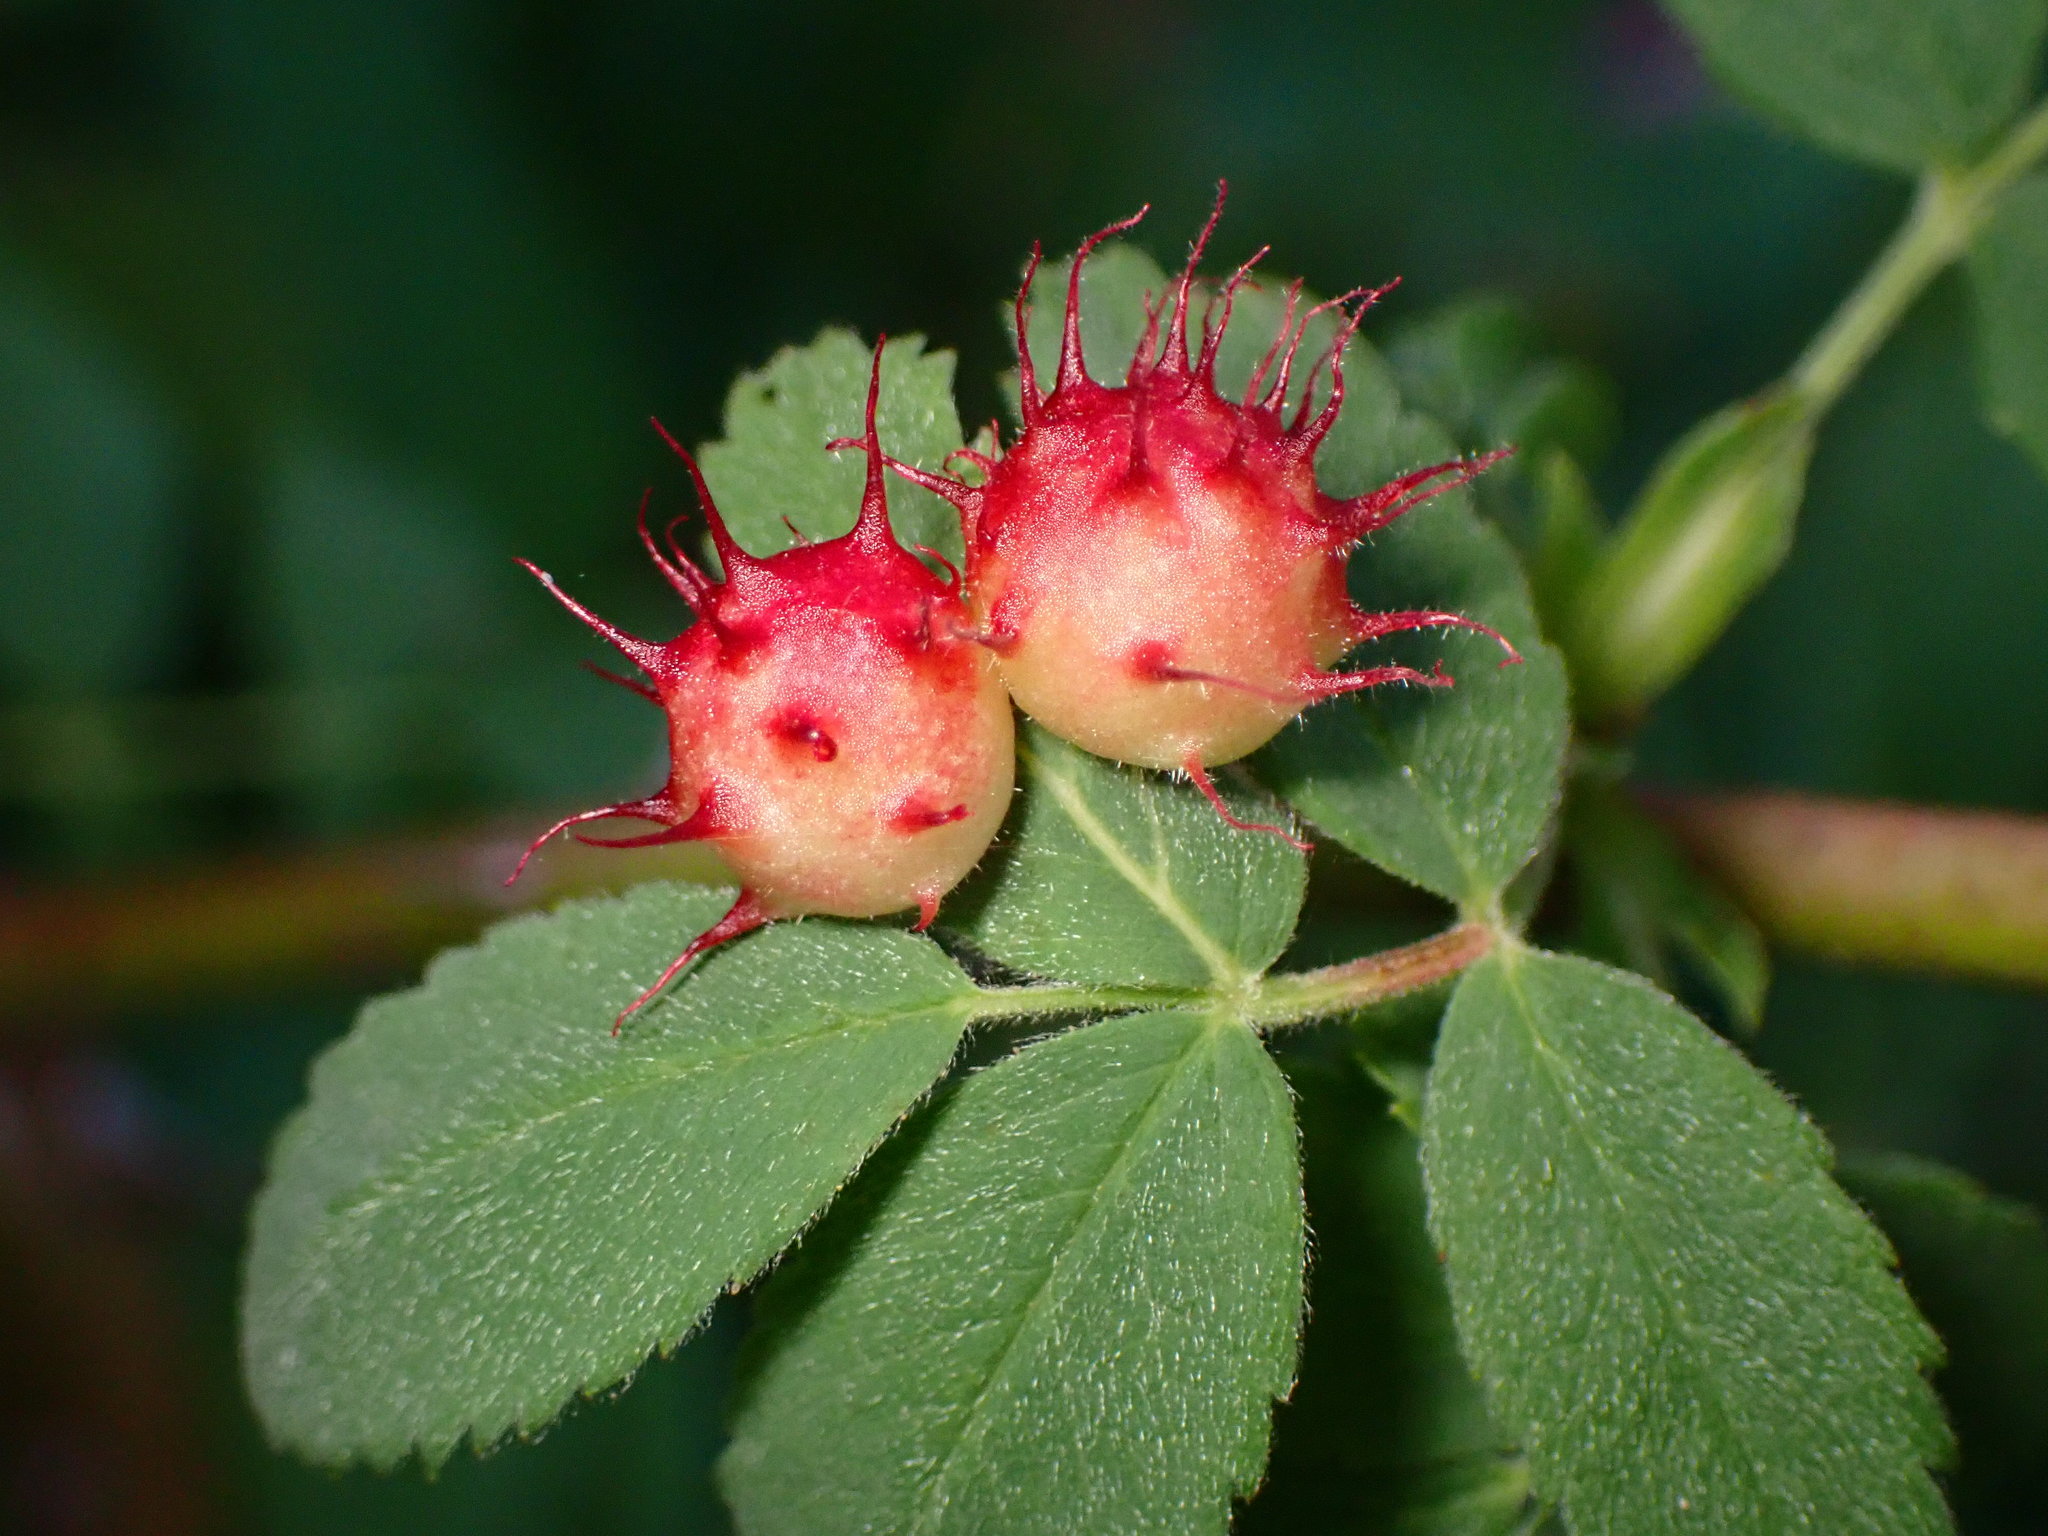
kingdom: Animalia
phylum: Arthropoda
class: Insecta
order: Hymenoptera
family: Cynipidae
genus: Diplolepis
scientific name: Diplolepis polita
